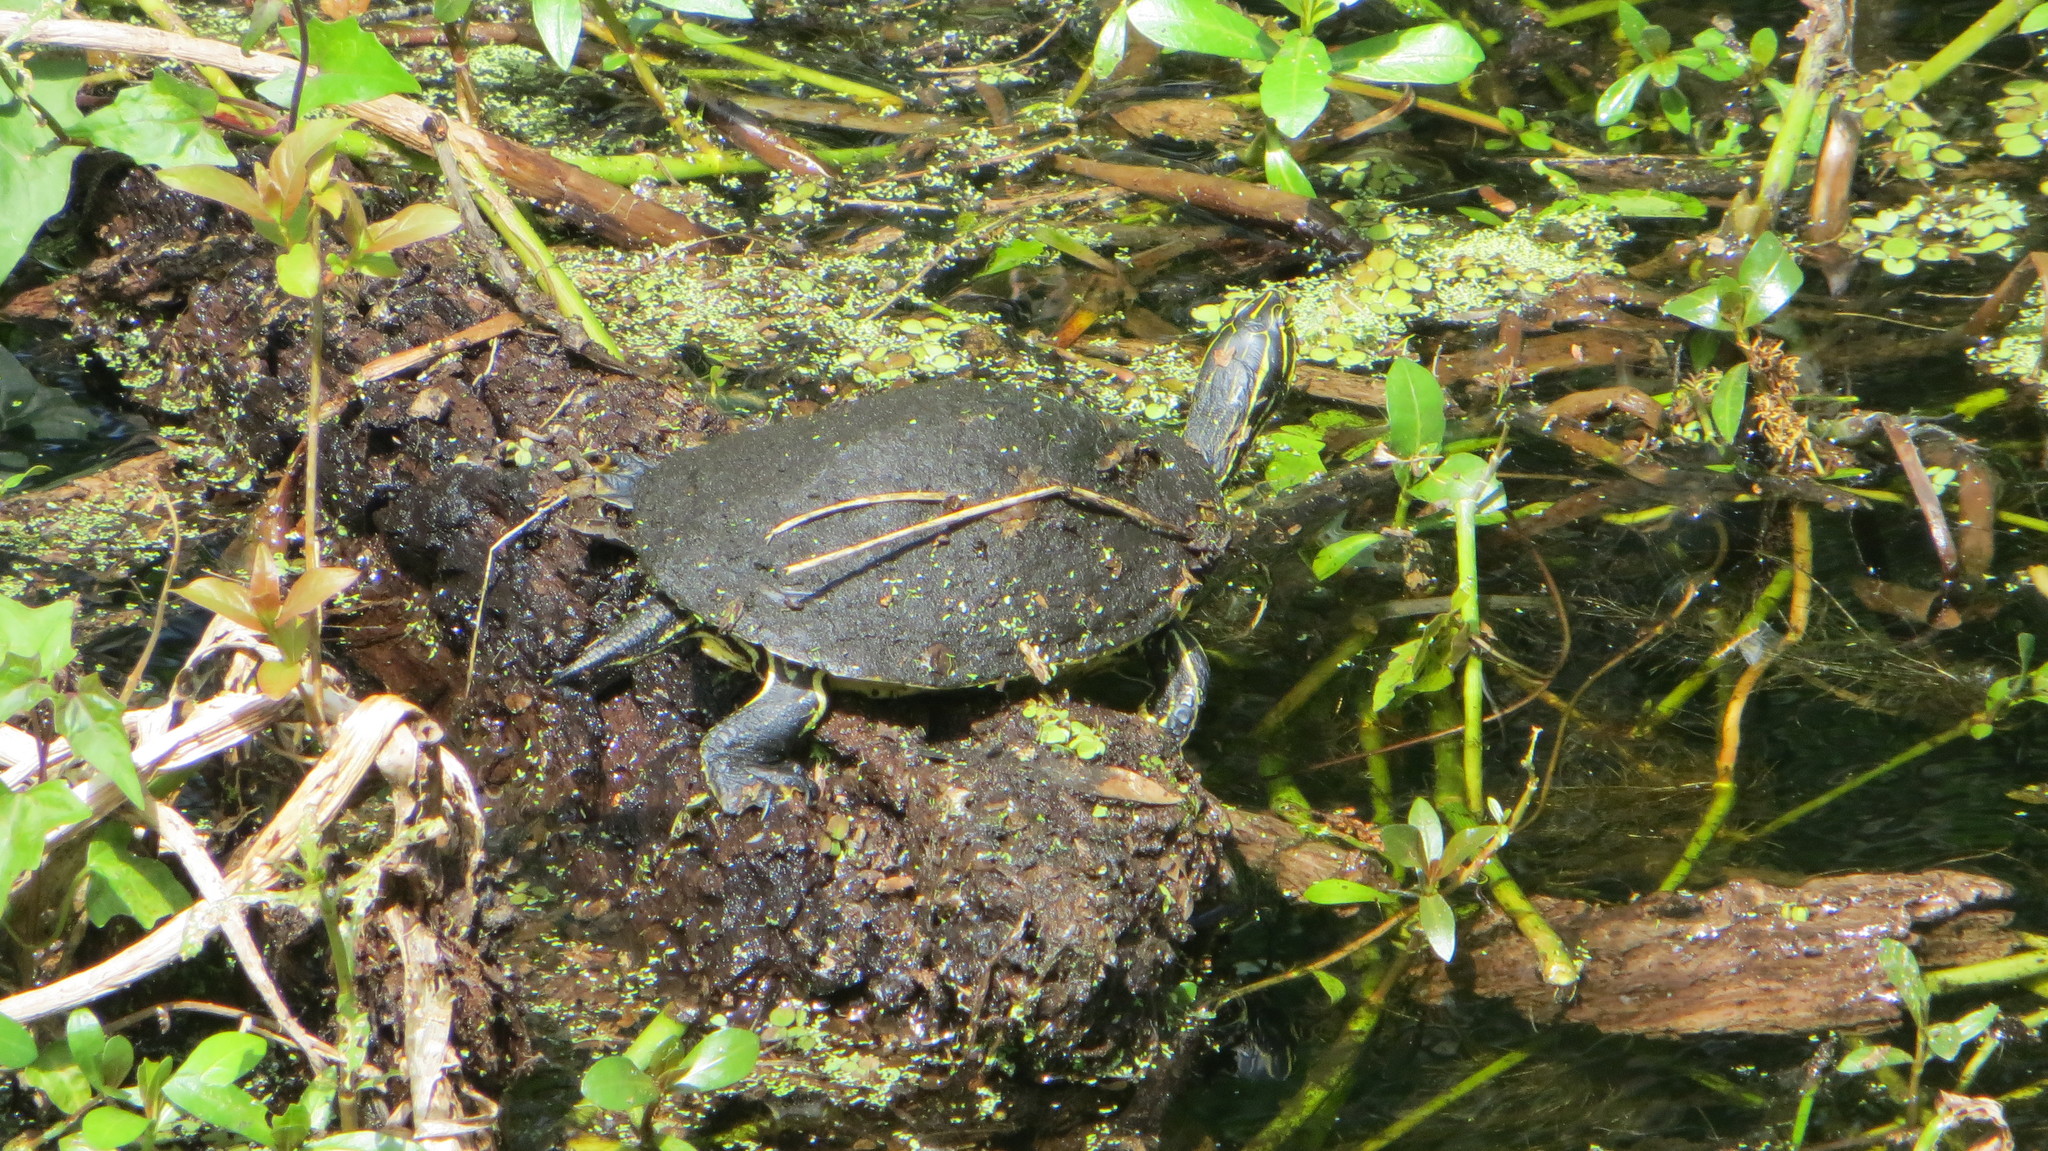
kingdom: Animalia
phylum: Chordata
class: Testudines
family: Emydidae
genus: Pseudemys
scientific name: Pseudemys nelsoni
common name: Florida red-bellied turtle
